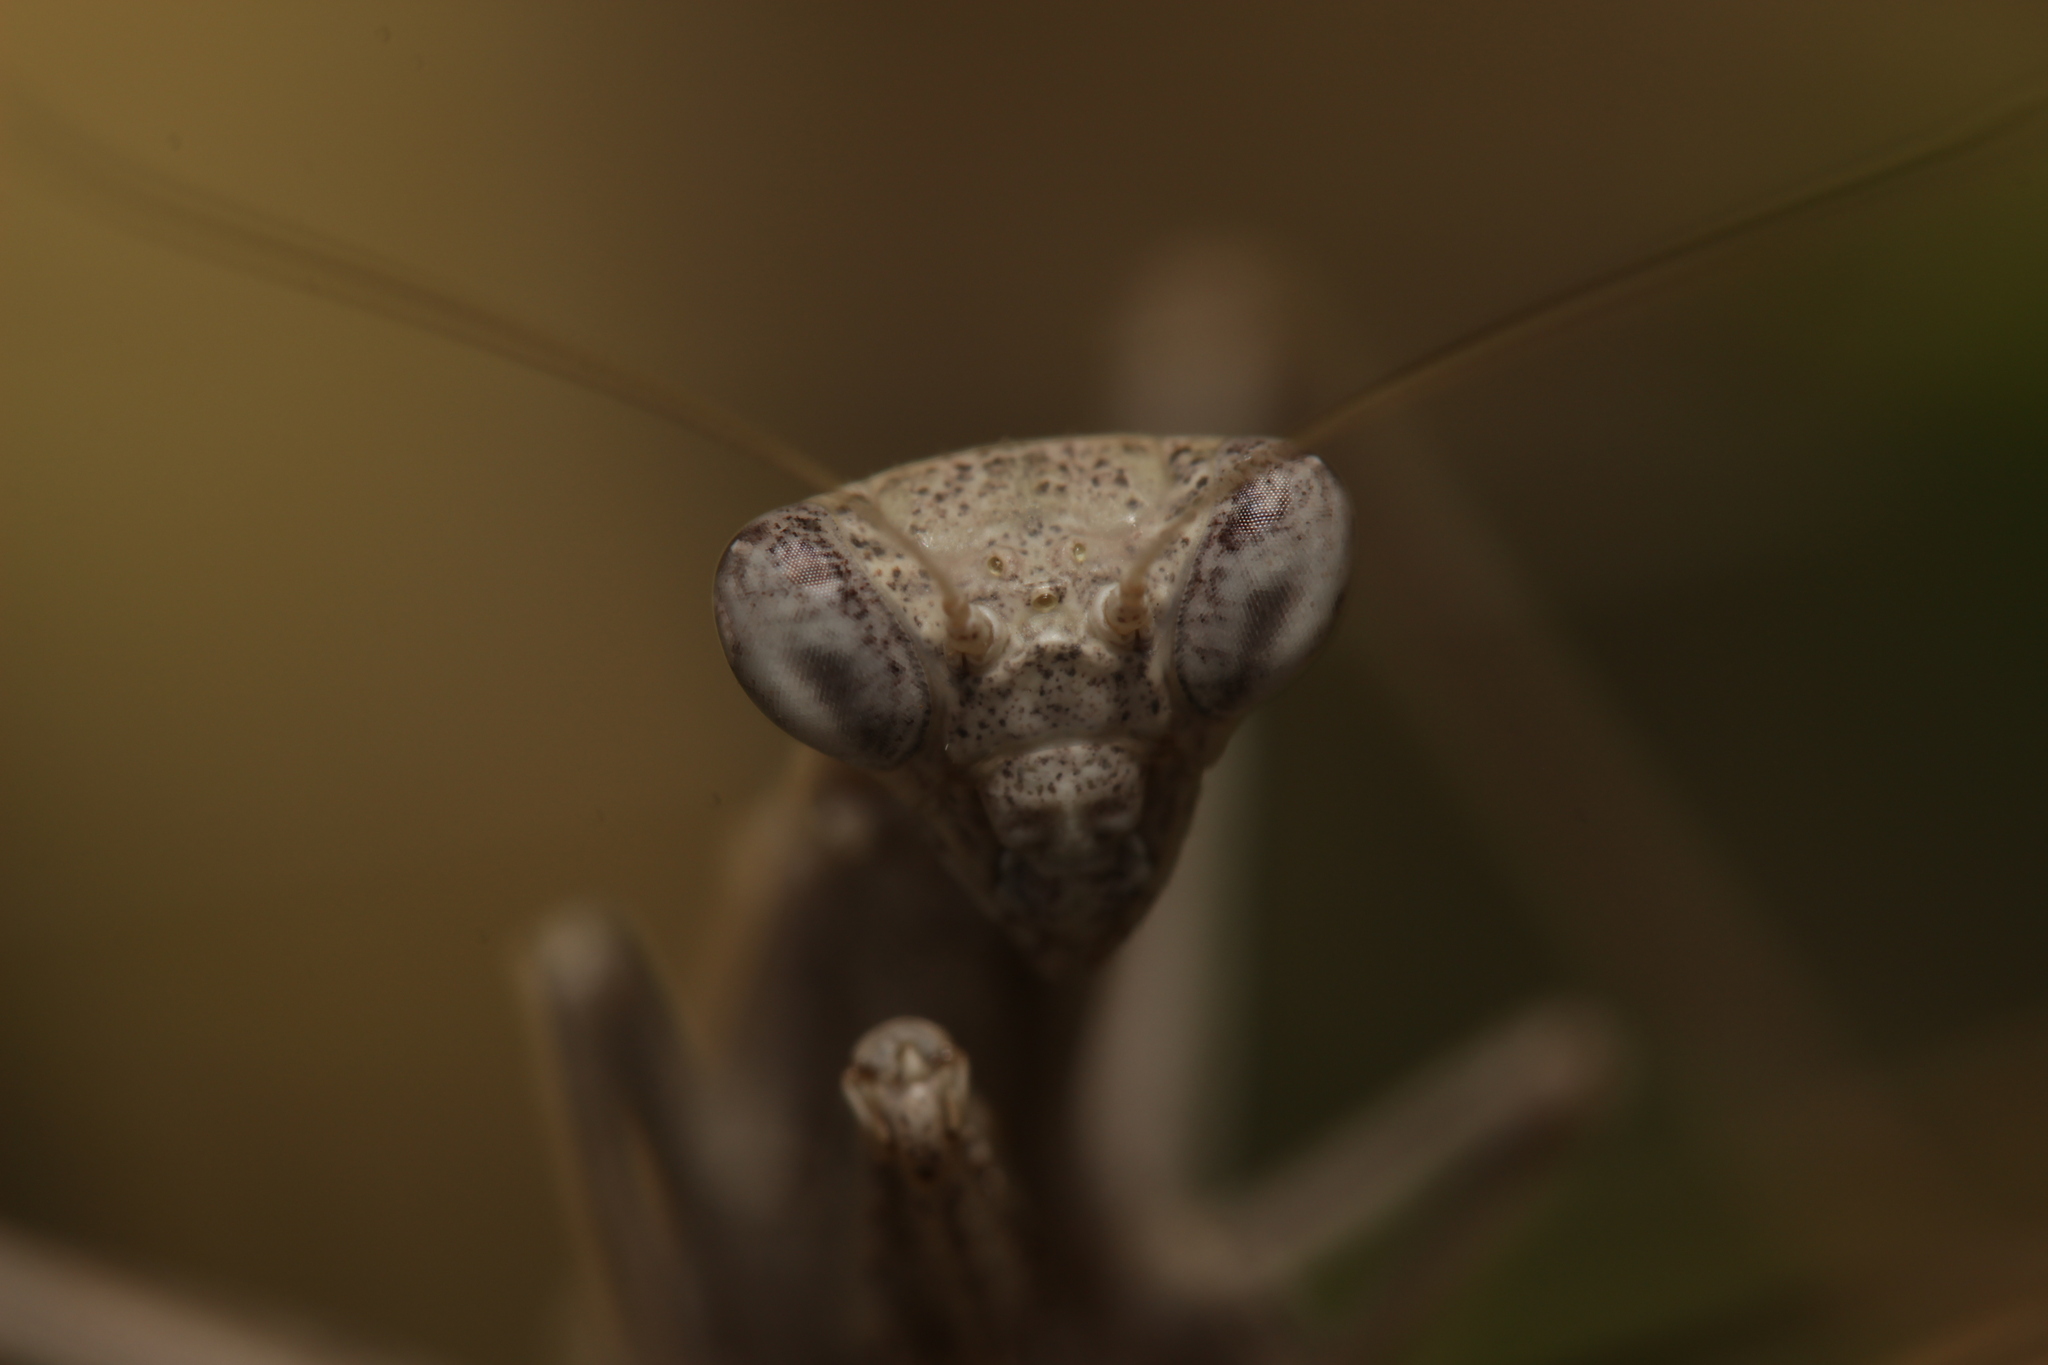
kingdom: Animalia
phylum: Arthropoda
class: Insecta
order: Mantodea
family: Amelidae
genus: Ameles
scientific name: Ameles decolor
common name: Dwarf mantis
